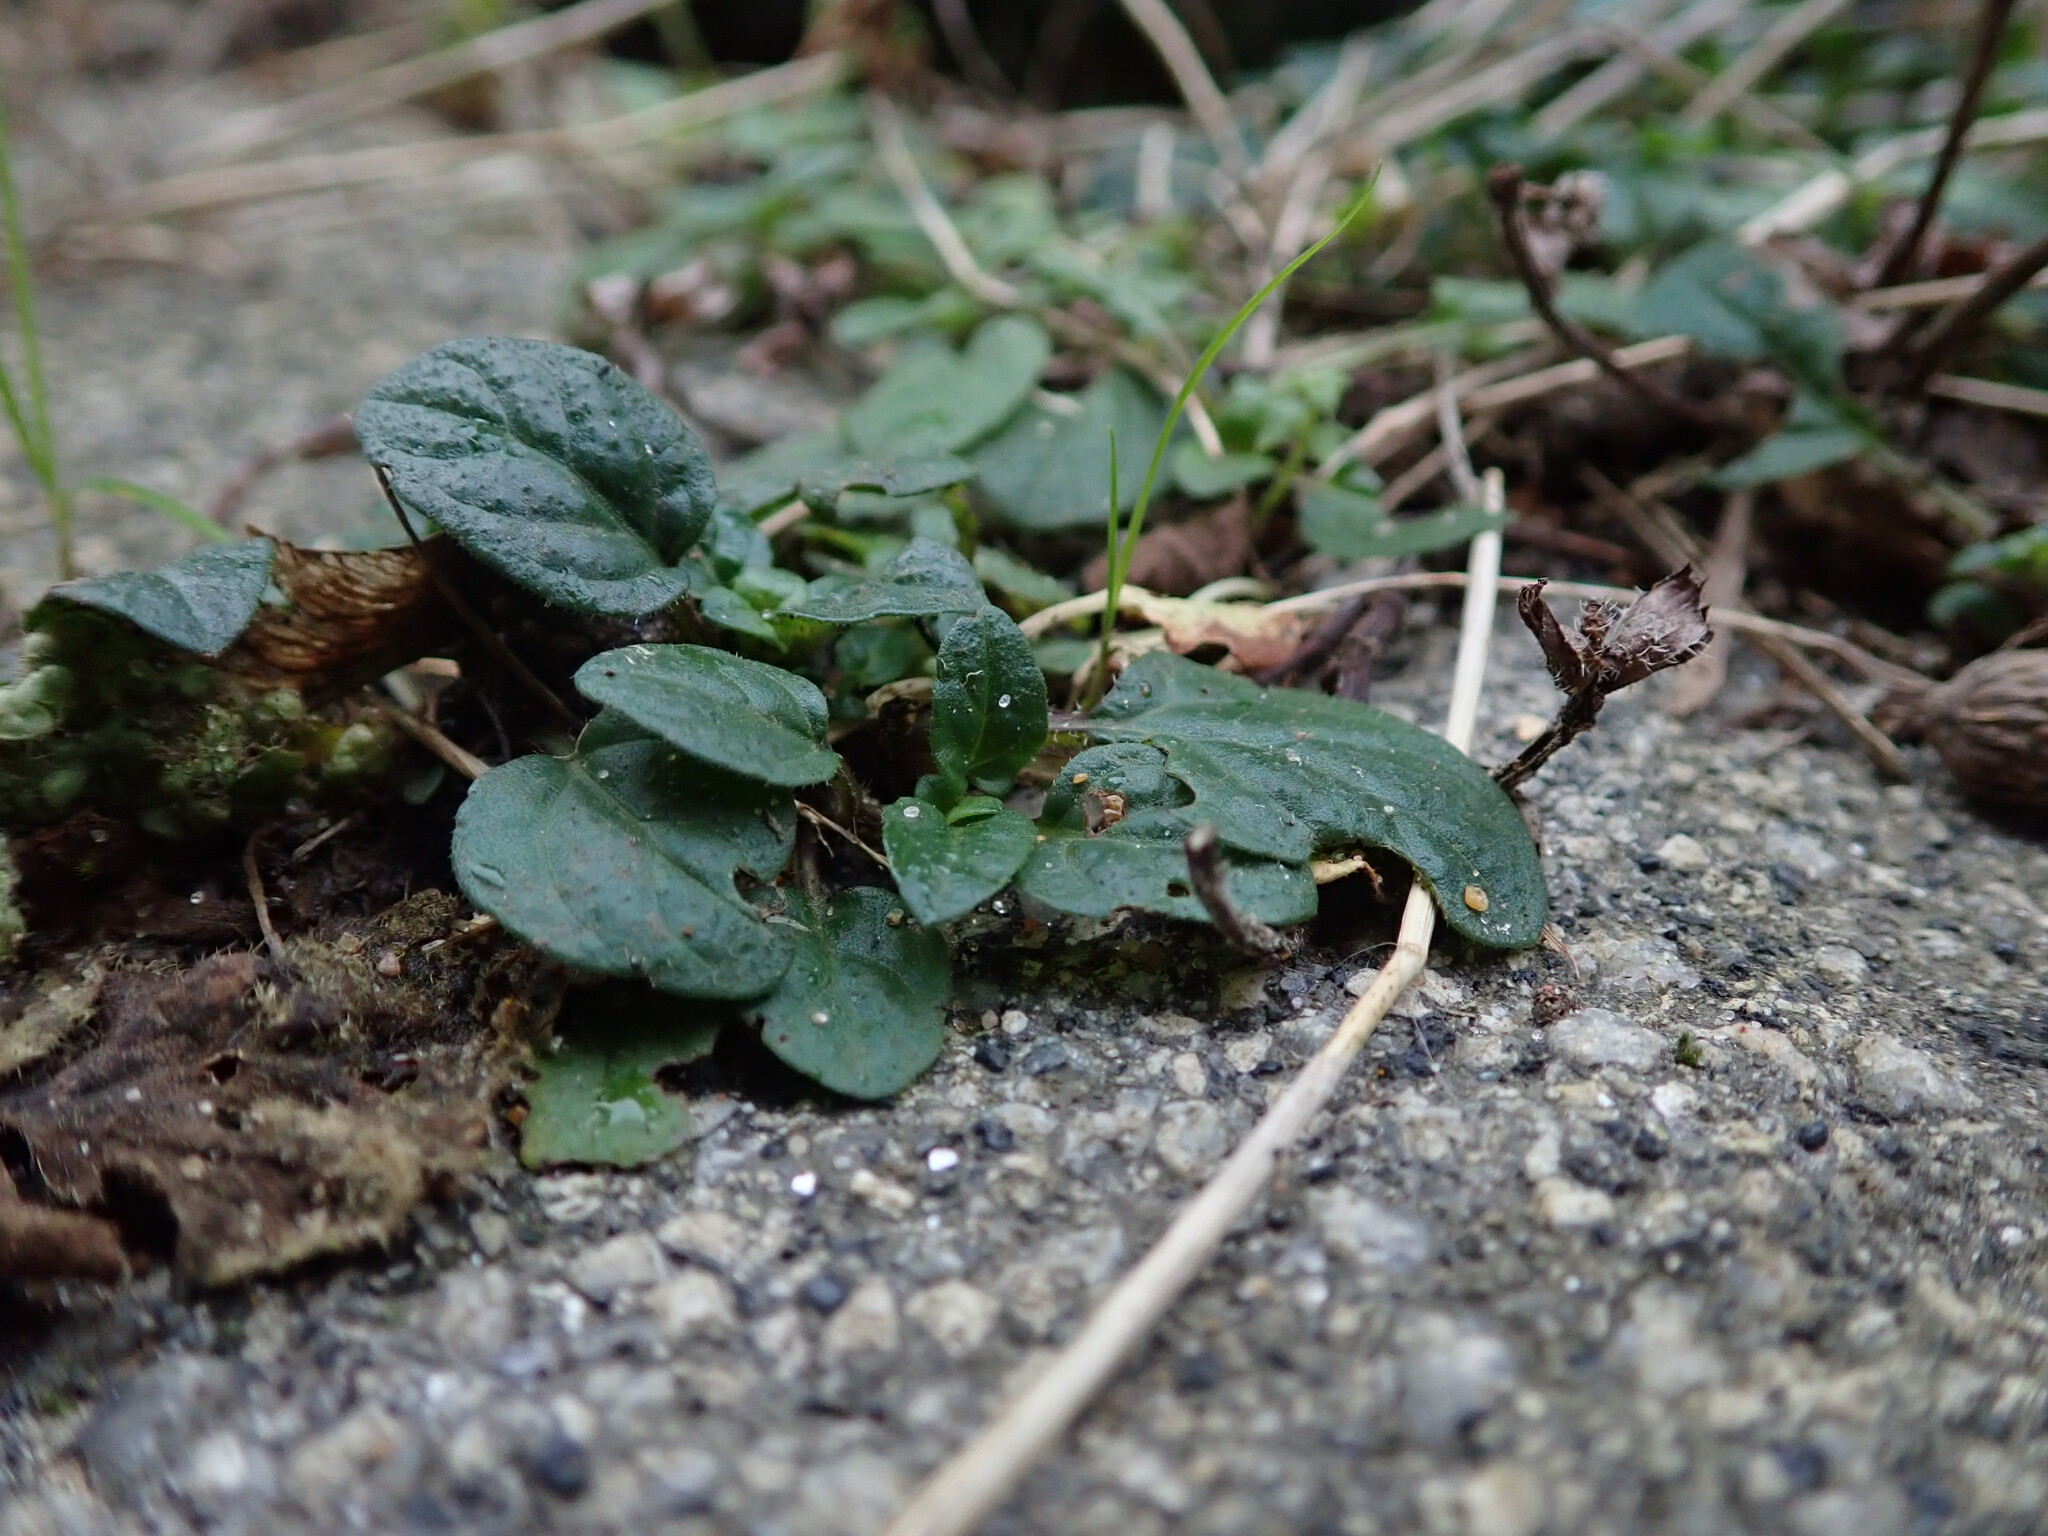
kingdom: Plantae
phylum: Tracheophyta
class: Magnoliopsida
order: Lamiales
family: Lamiaceae
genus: Prunella
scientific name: Prunella vulgaris
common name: Heal-all
